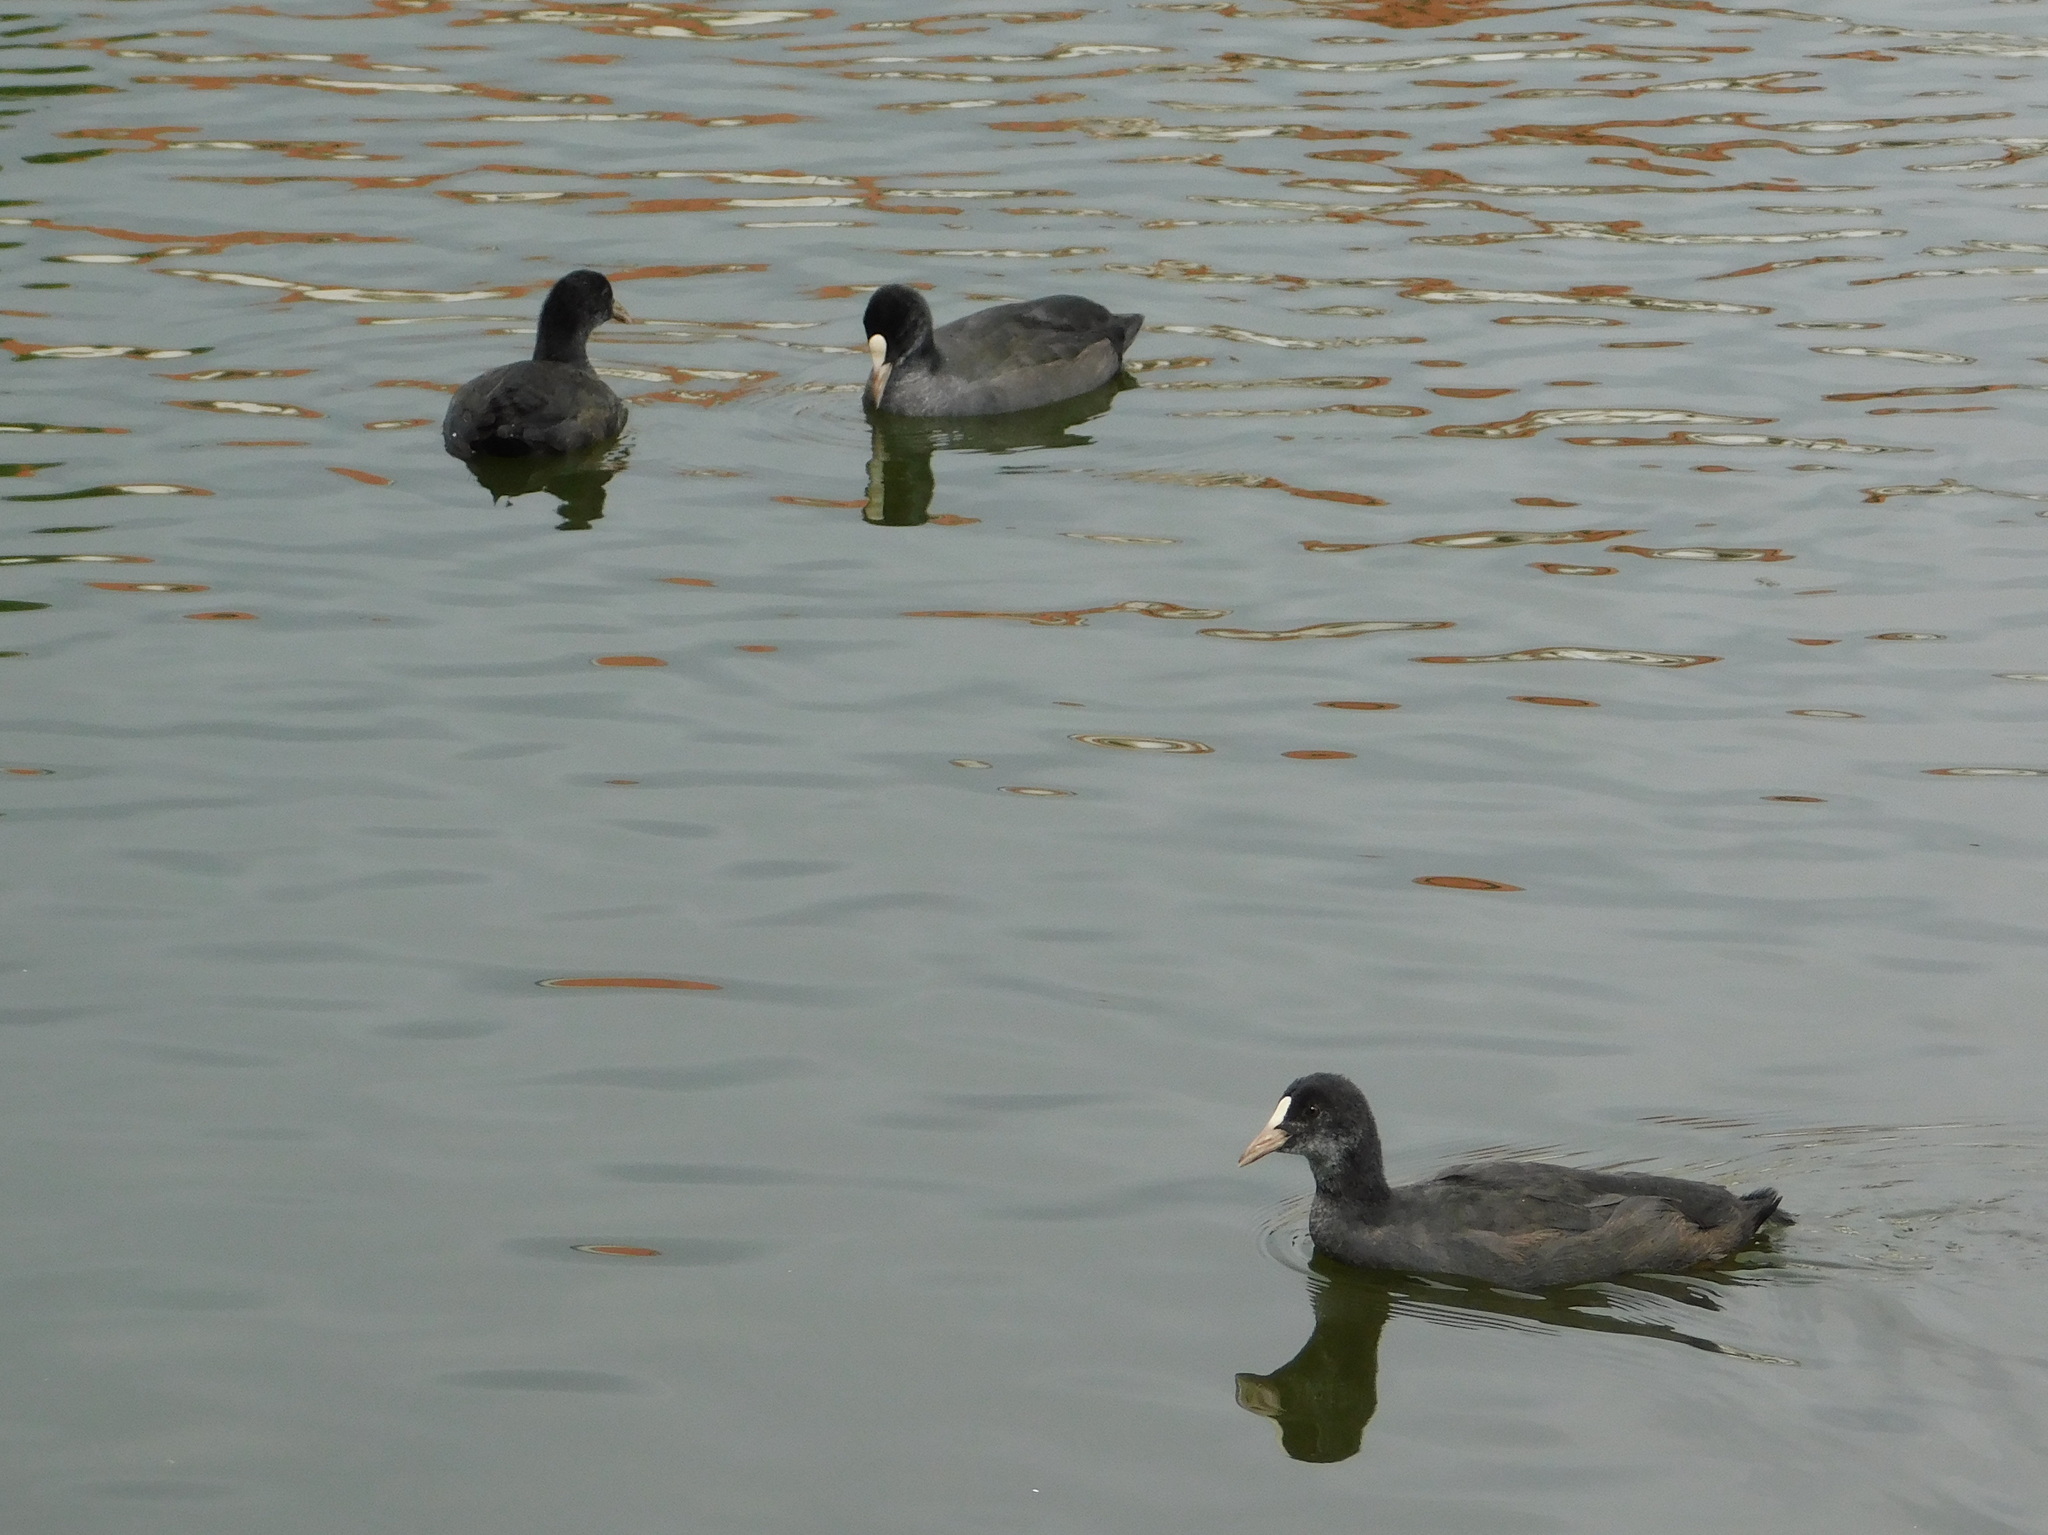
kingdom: Animalia
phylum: Chordata
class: Aves
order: Gruiformes
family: Rallidae
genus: Fulica
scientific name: Fulica atra
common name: Eurasian coot
